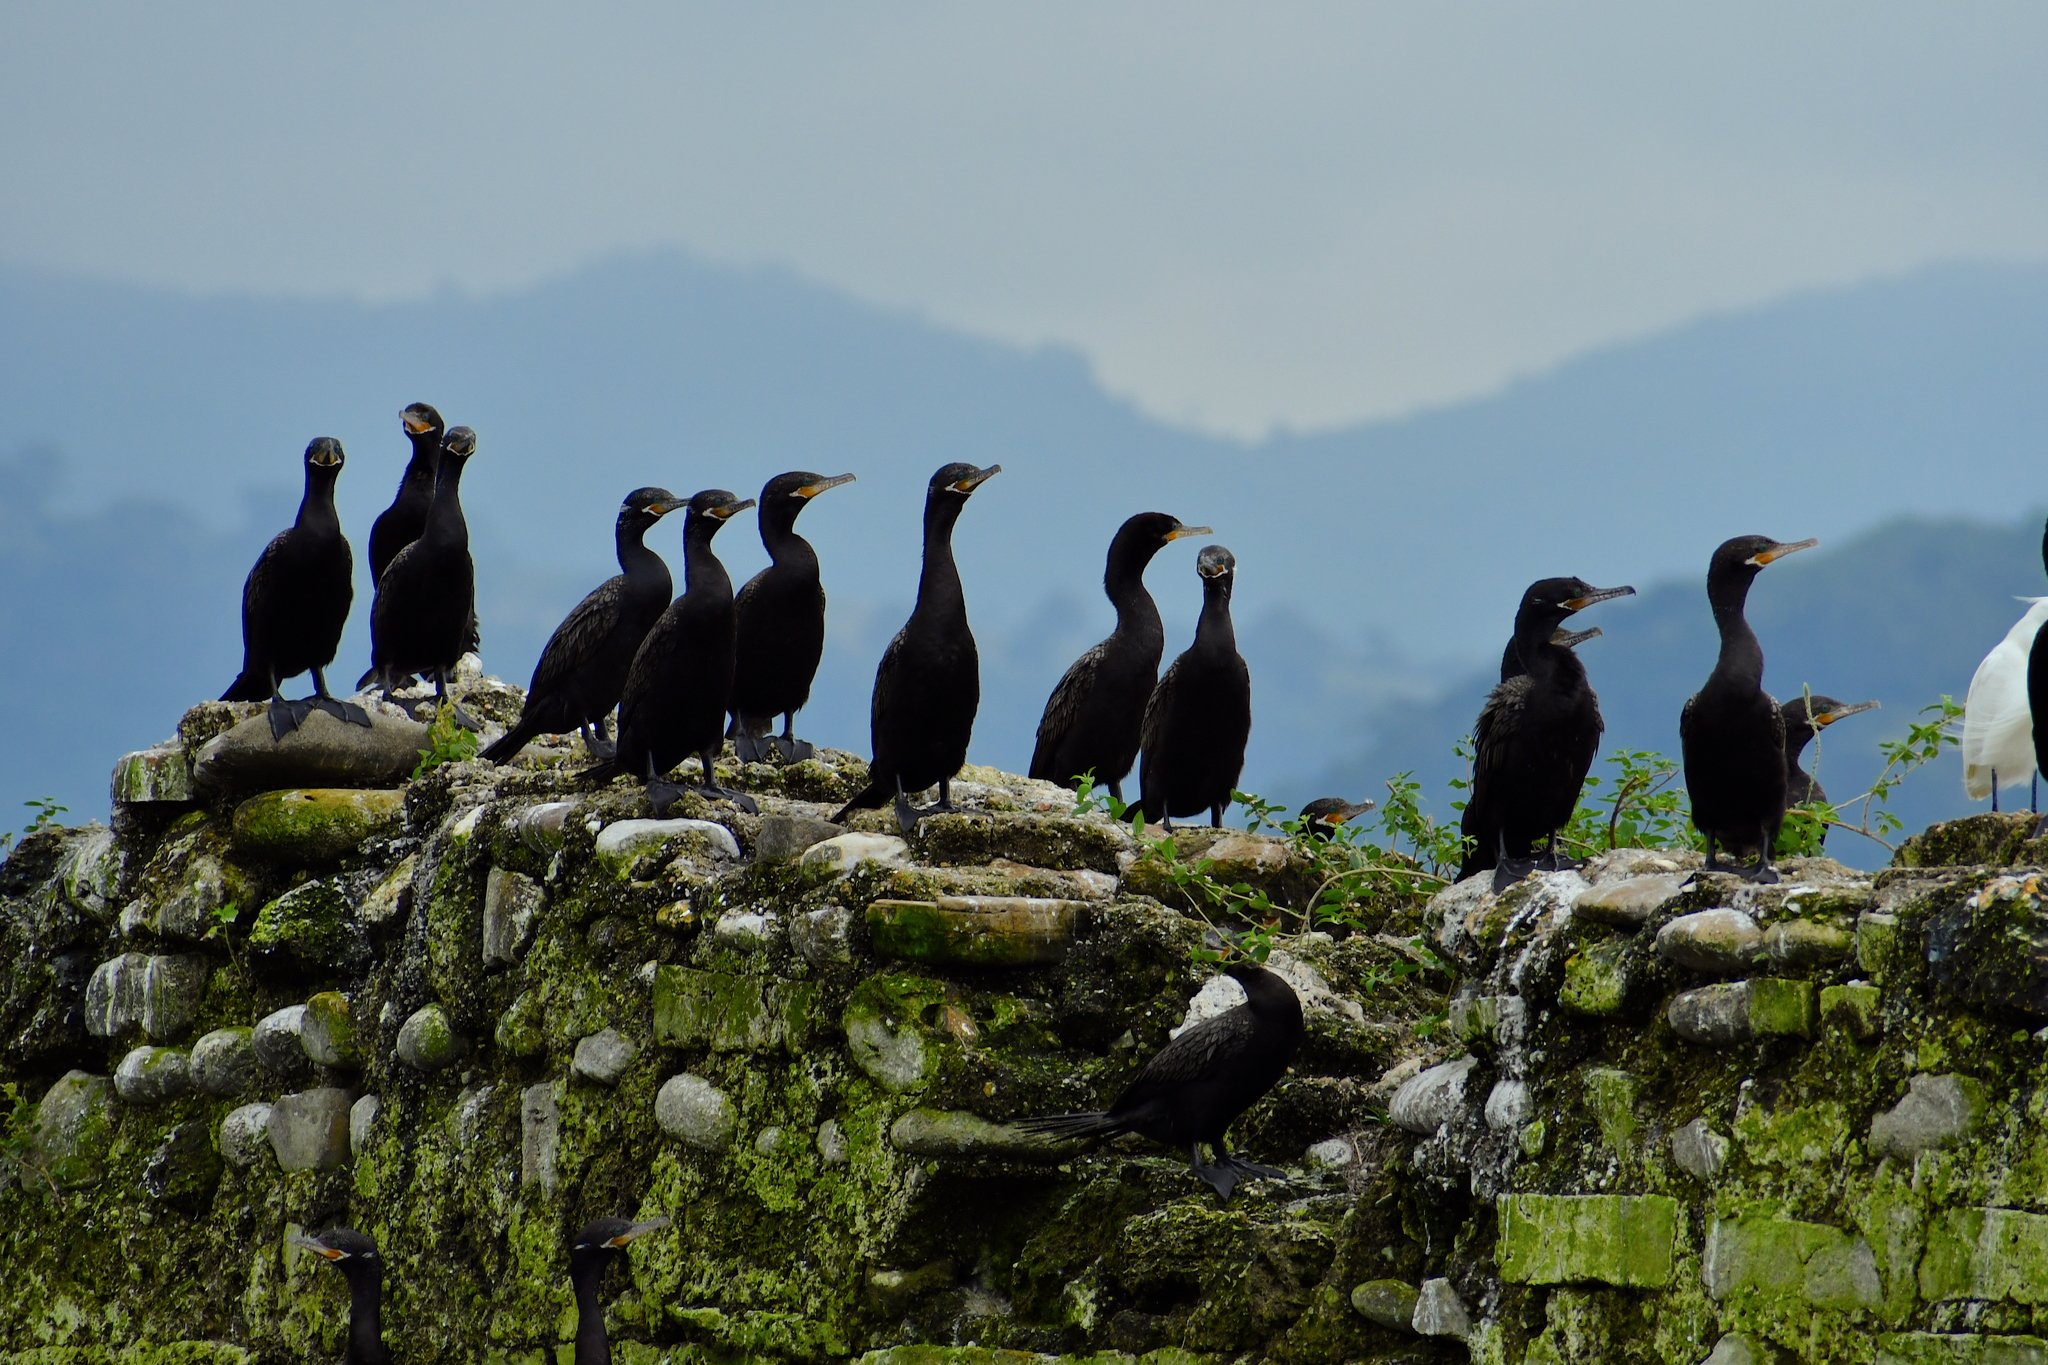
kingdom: Animalia
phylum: Chordata
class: Aves
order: Suliformes
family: Phalacrocoracidae
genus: Phalacrocorax
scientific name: Phalacrocorax brasilianus
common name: Neotropic cormorant
